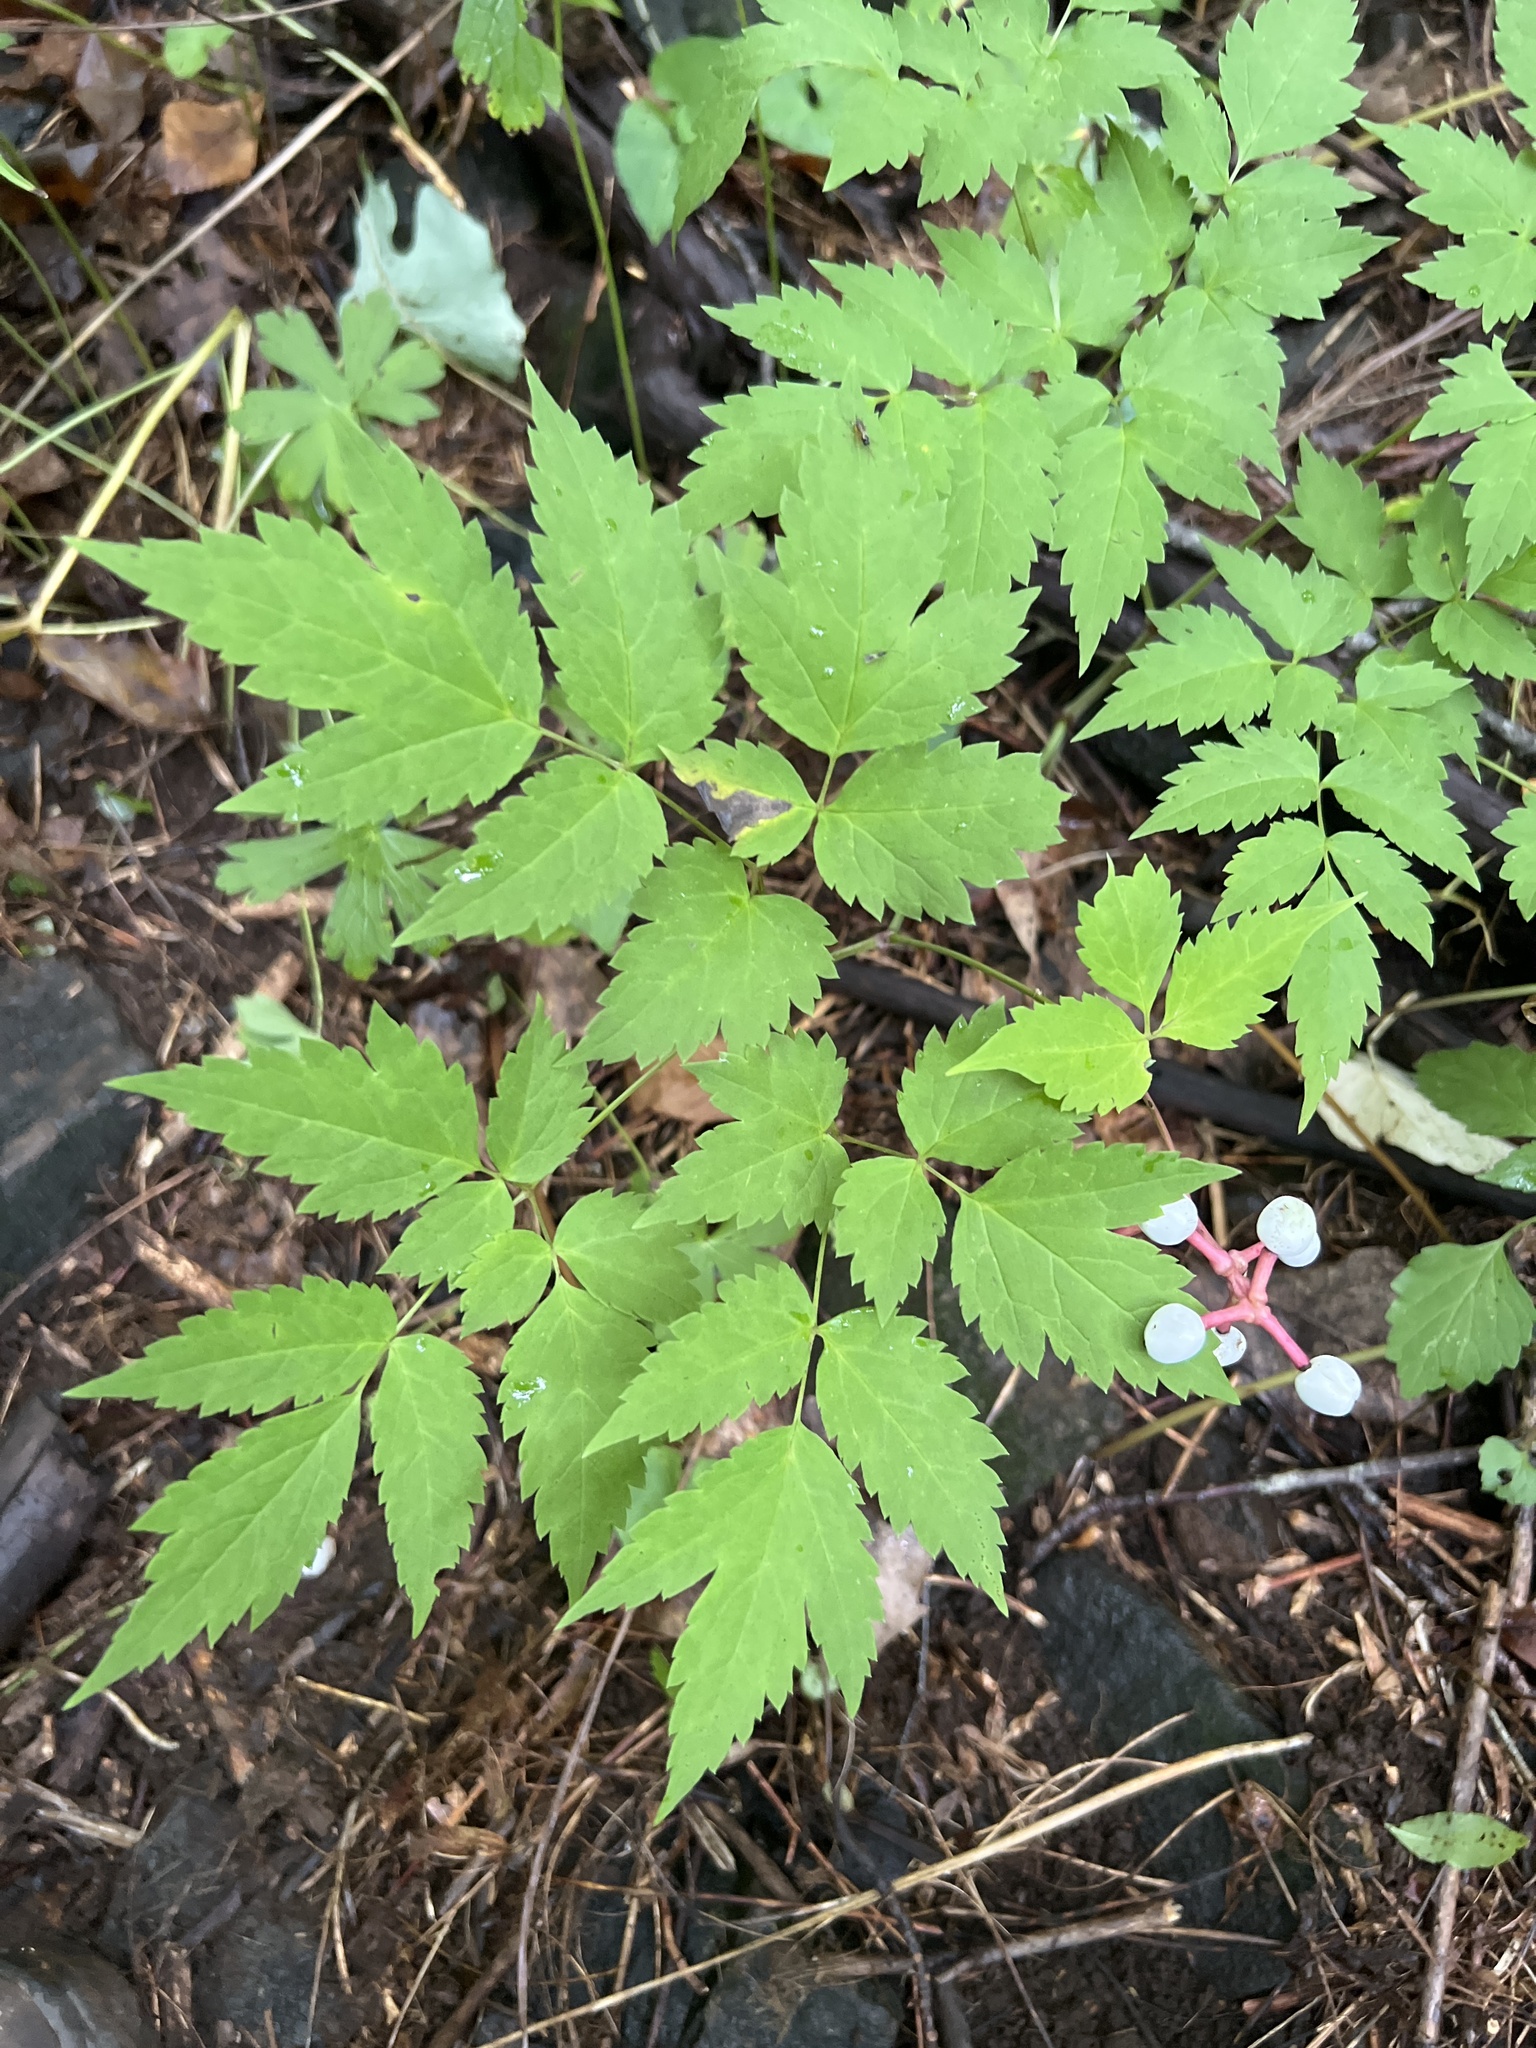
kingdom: Plantae
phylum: Tracheophyta
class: Magnoliopsida
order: Ranunculales
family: Ranunculaceae
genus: Actaea
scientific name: Actaea pachypoda
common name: Doll's-eyes
